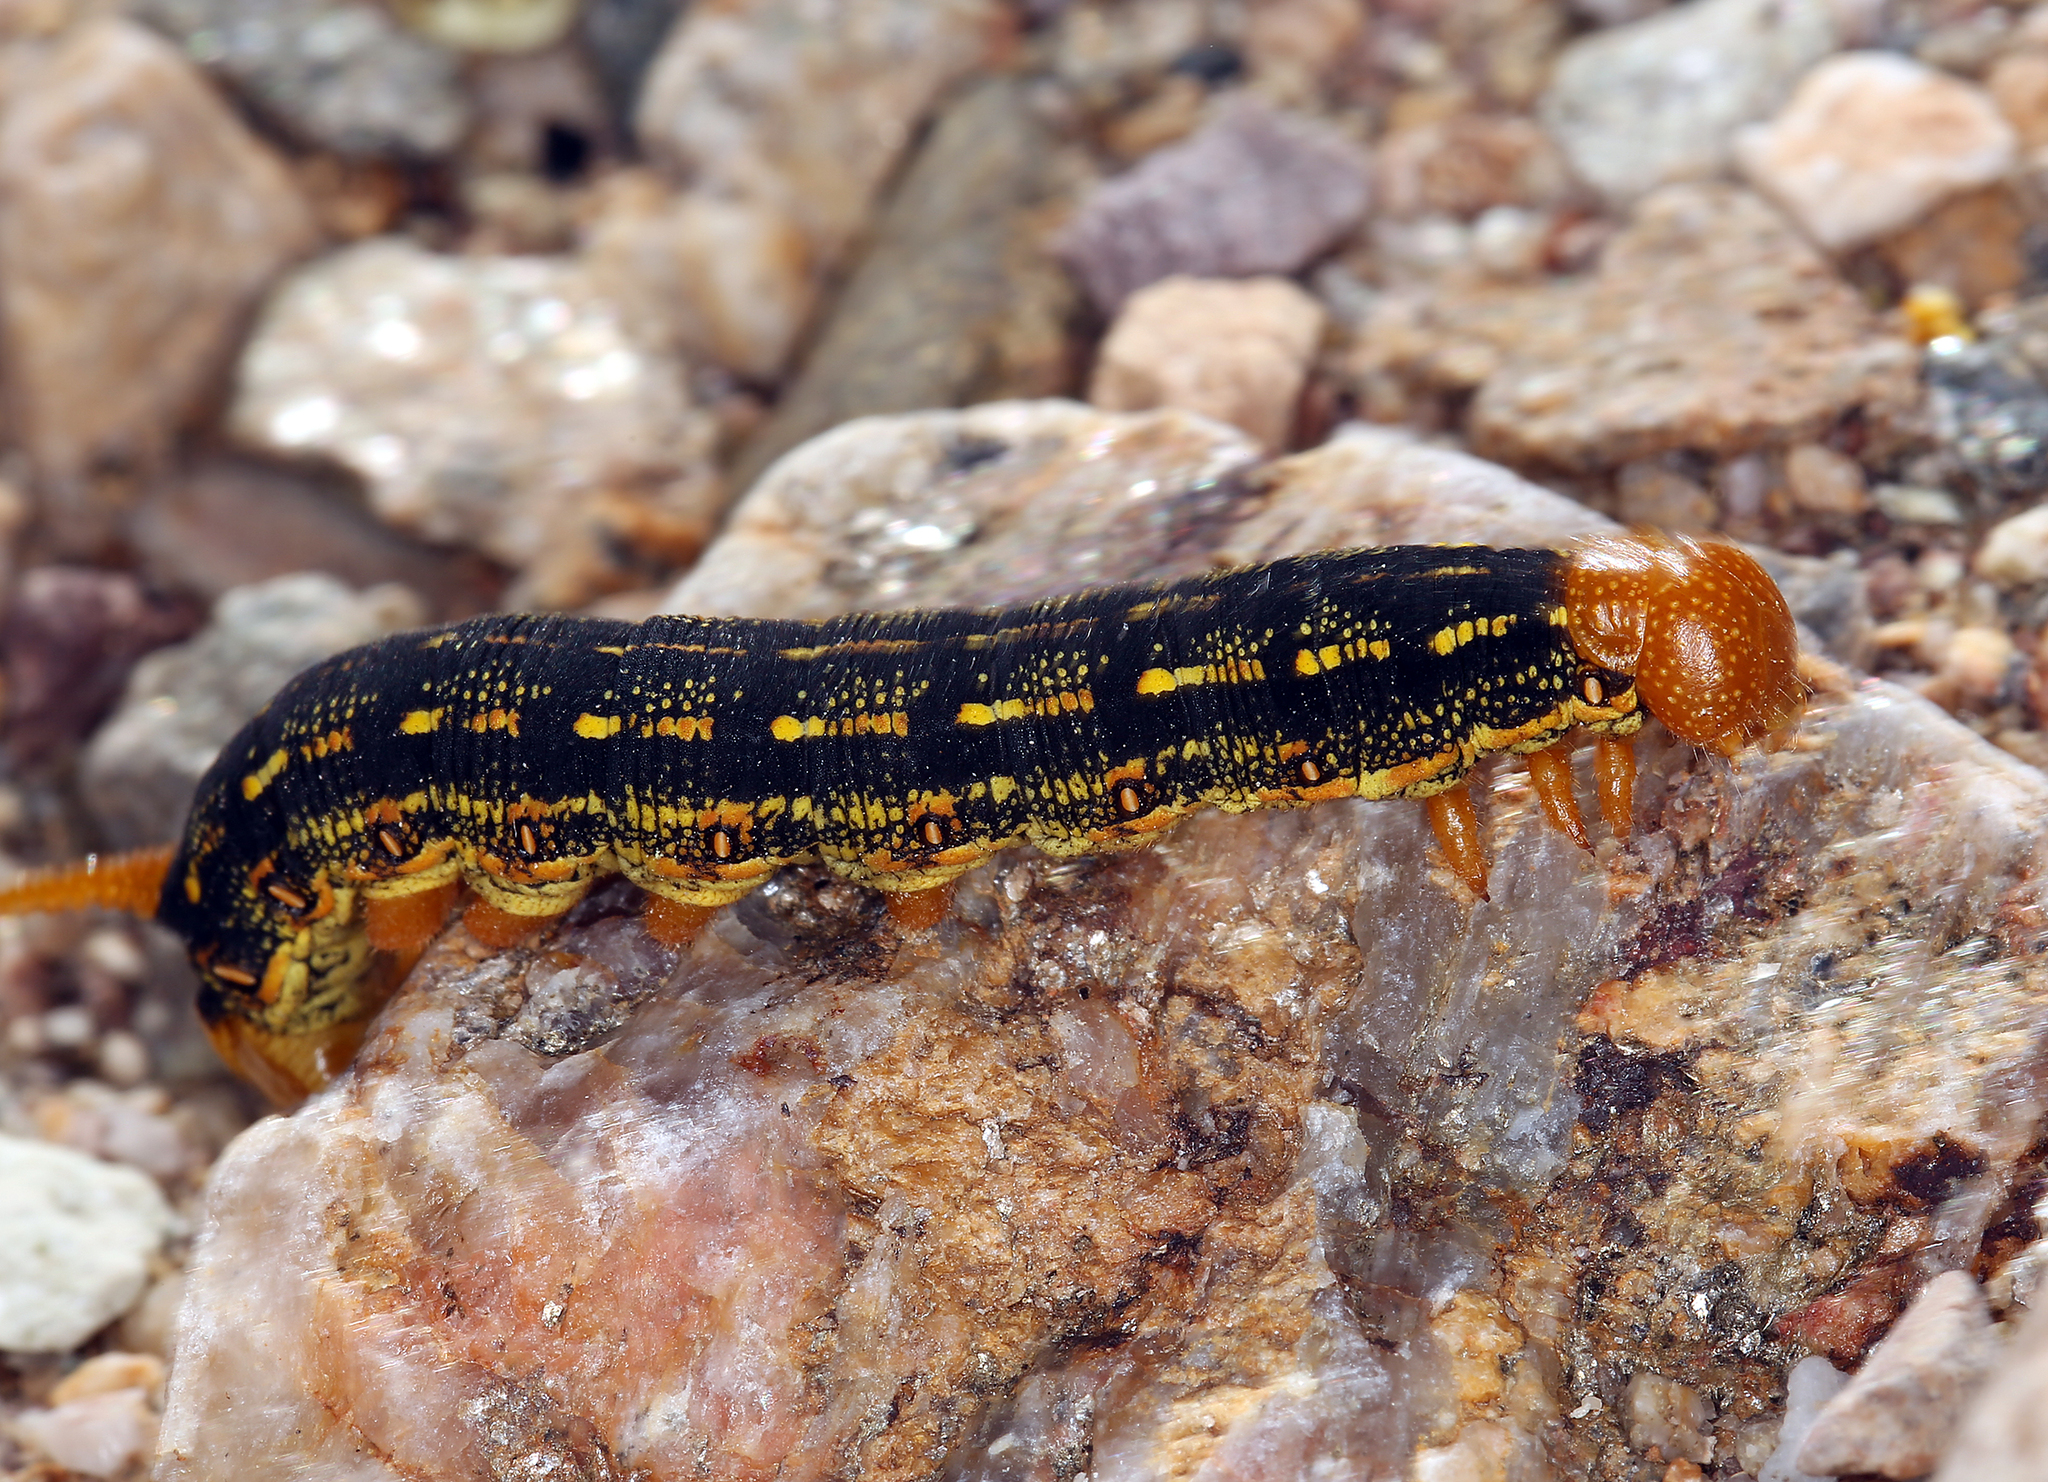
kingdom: Animalia
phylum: Arthropoda
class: Insecta
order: Lepidoptera
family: Sphingidae
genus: Hyles
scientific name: Hyles lineata
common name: White-lined sphinx
